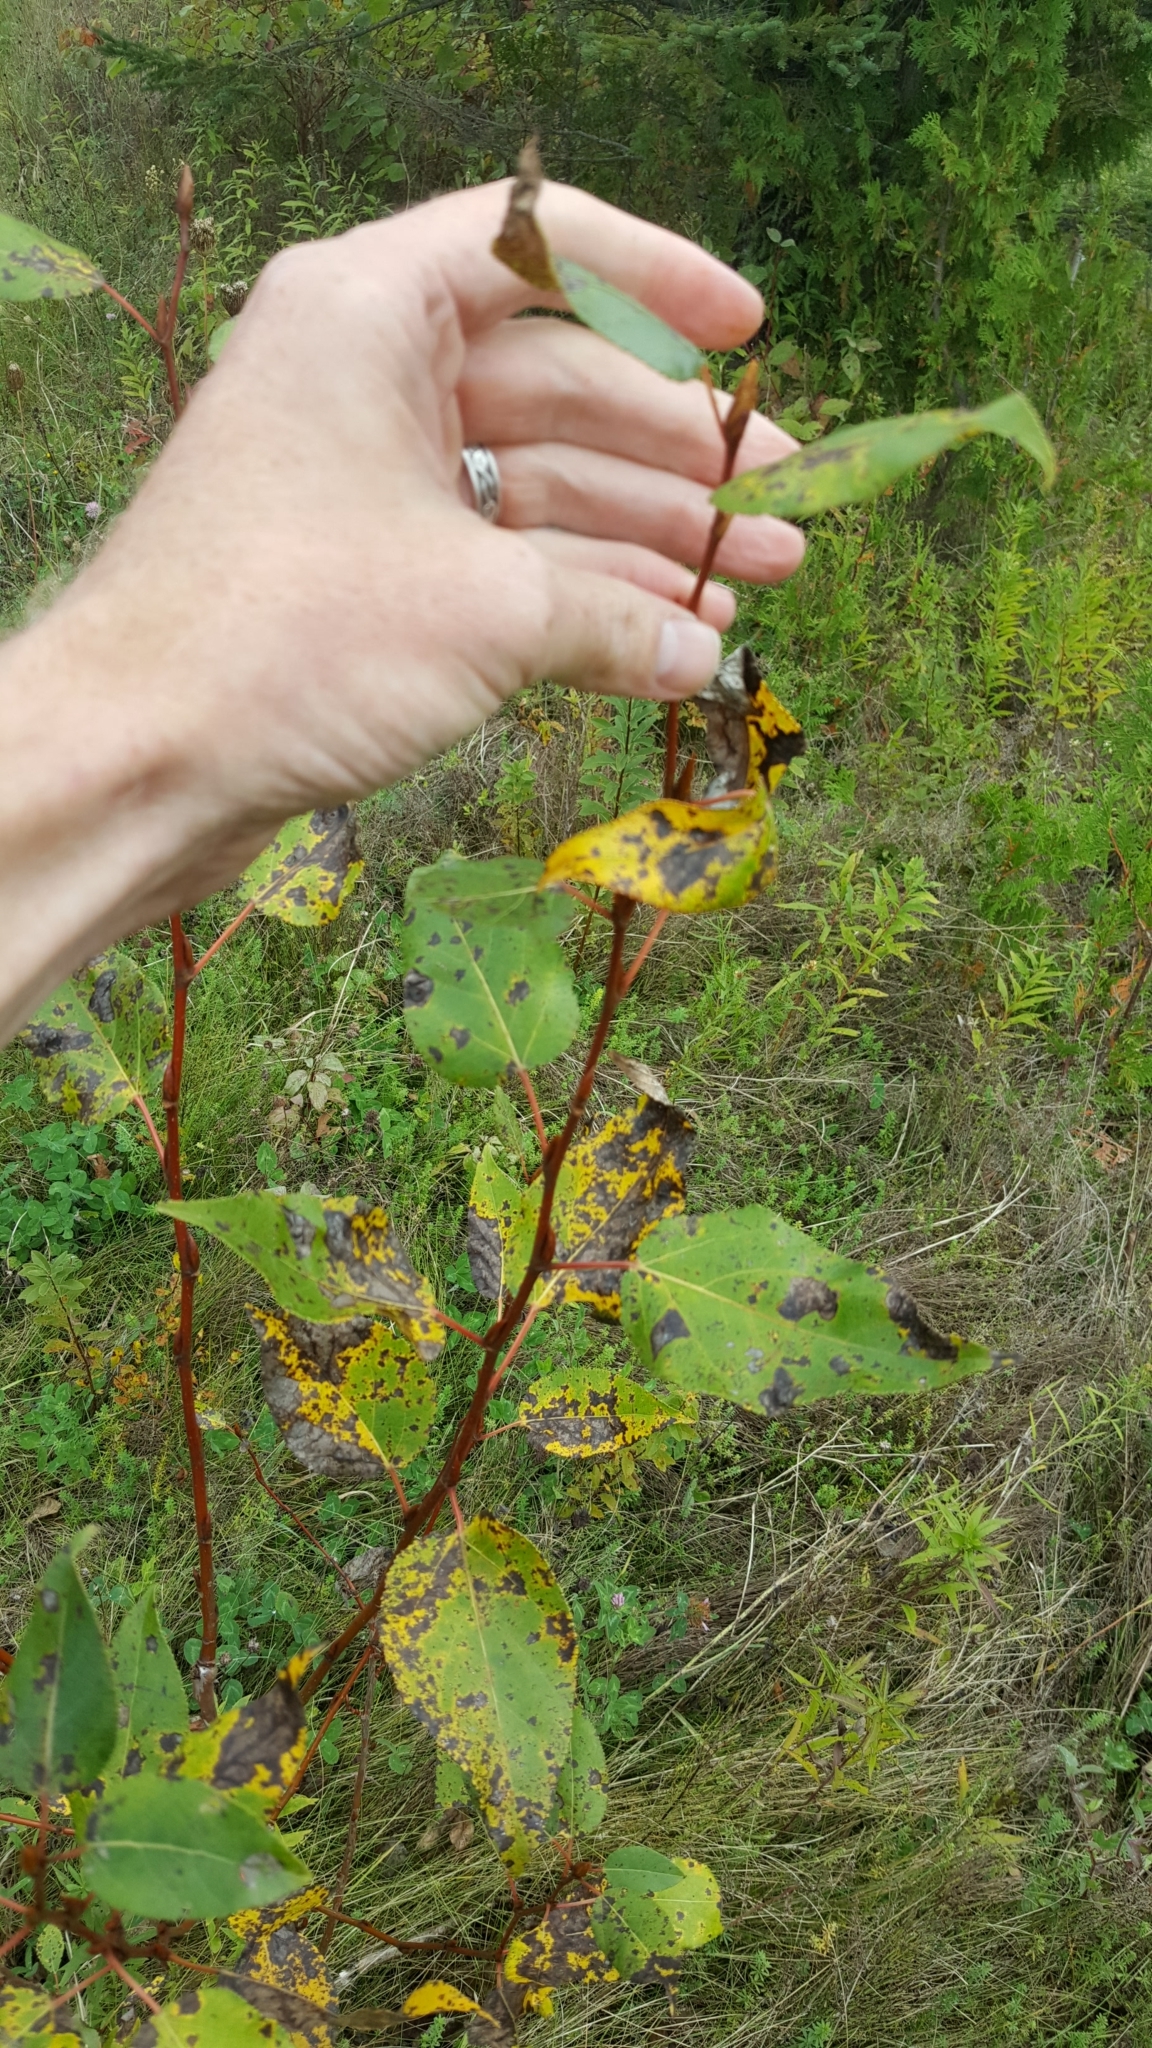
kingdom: Plantae
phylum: Tracheophyta
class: Magnoliopsida
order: Malpighiales
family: Salicaceae
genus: Populus
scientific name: Populus balsamifera
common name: Balsam poplar
